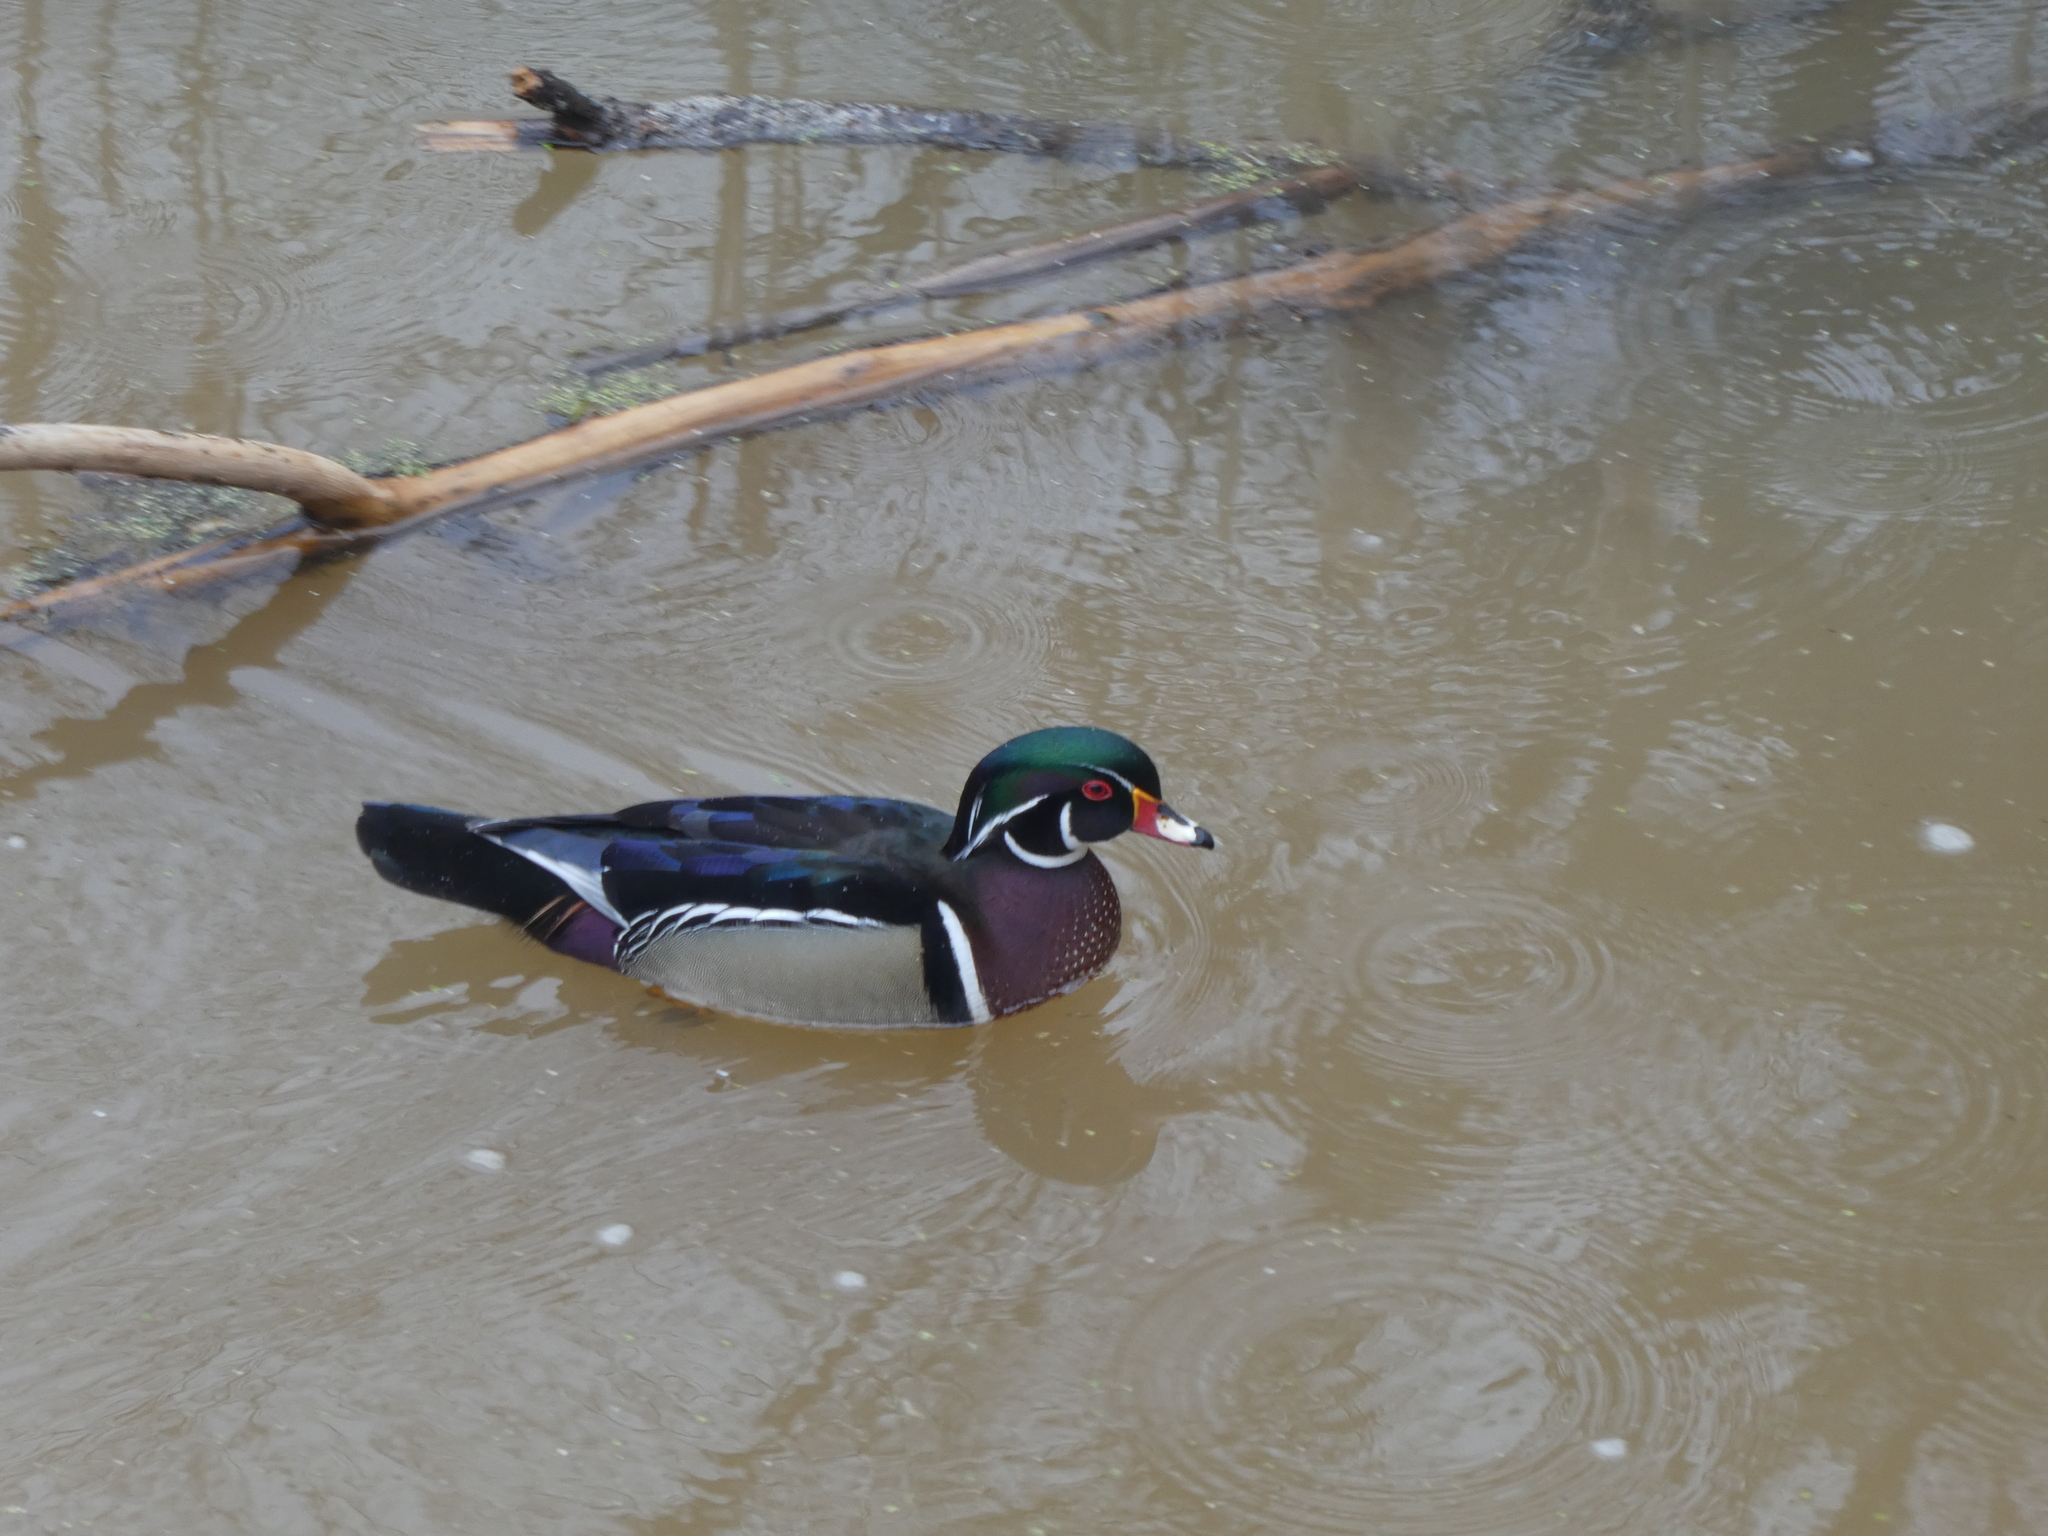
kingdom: Animalia
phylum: Chordata
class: Aves
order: Anseriformes
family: Anatidae
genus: Aix
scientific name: Aix sponsa
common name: Wood duck
